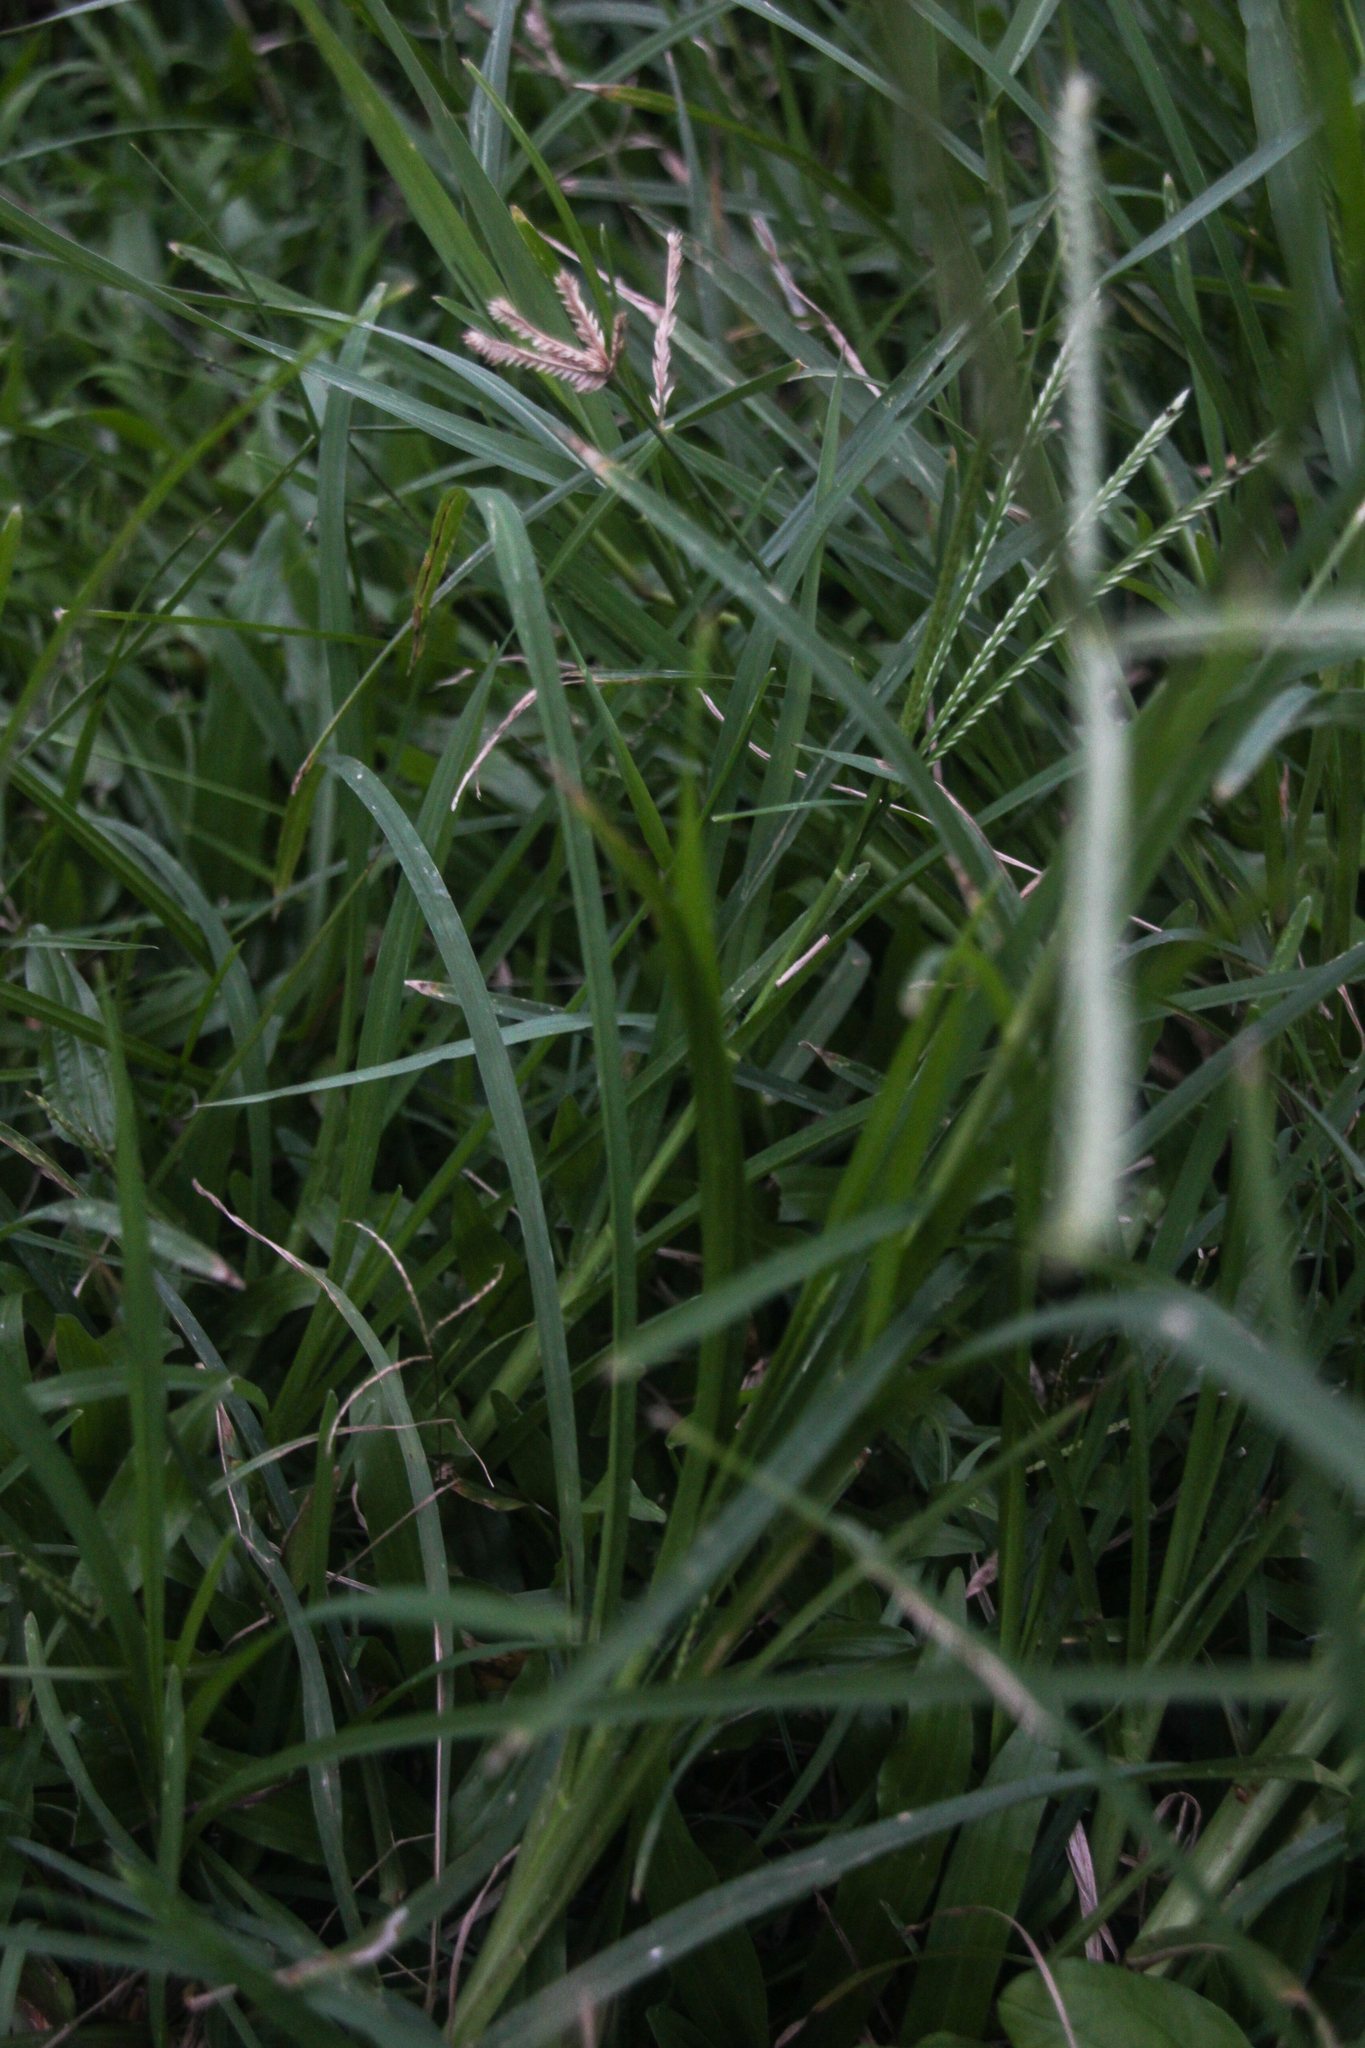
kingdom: Plantae
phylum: Tracheophyta
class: Liliopsida
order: Poales
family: Poaceae
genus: Eleusine
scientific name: Eleusine indica
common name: Yard-grass
